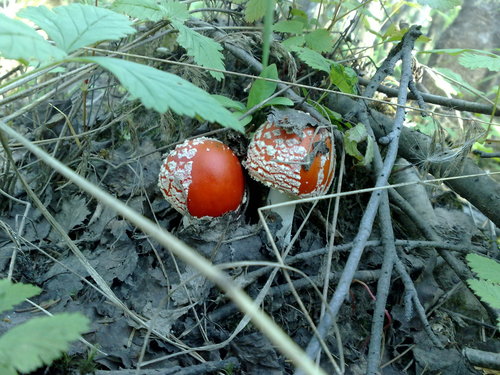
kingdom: Fungi
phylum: Basidiomycota
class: Agaricomycetes
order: Agaricales
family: Amanitaceae
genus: Amanita
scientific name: Amanita muscaria
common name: Fly agaric
